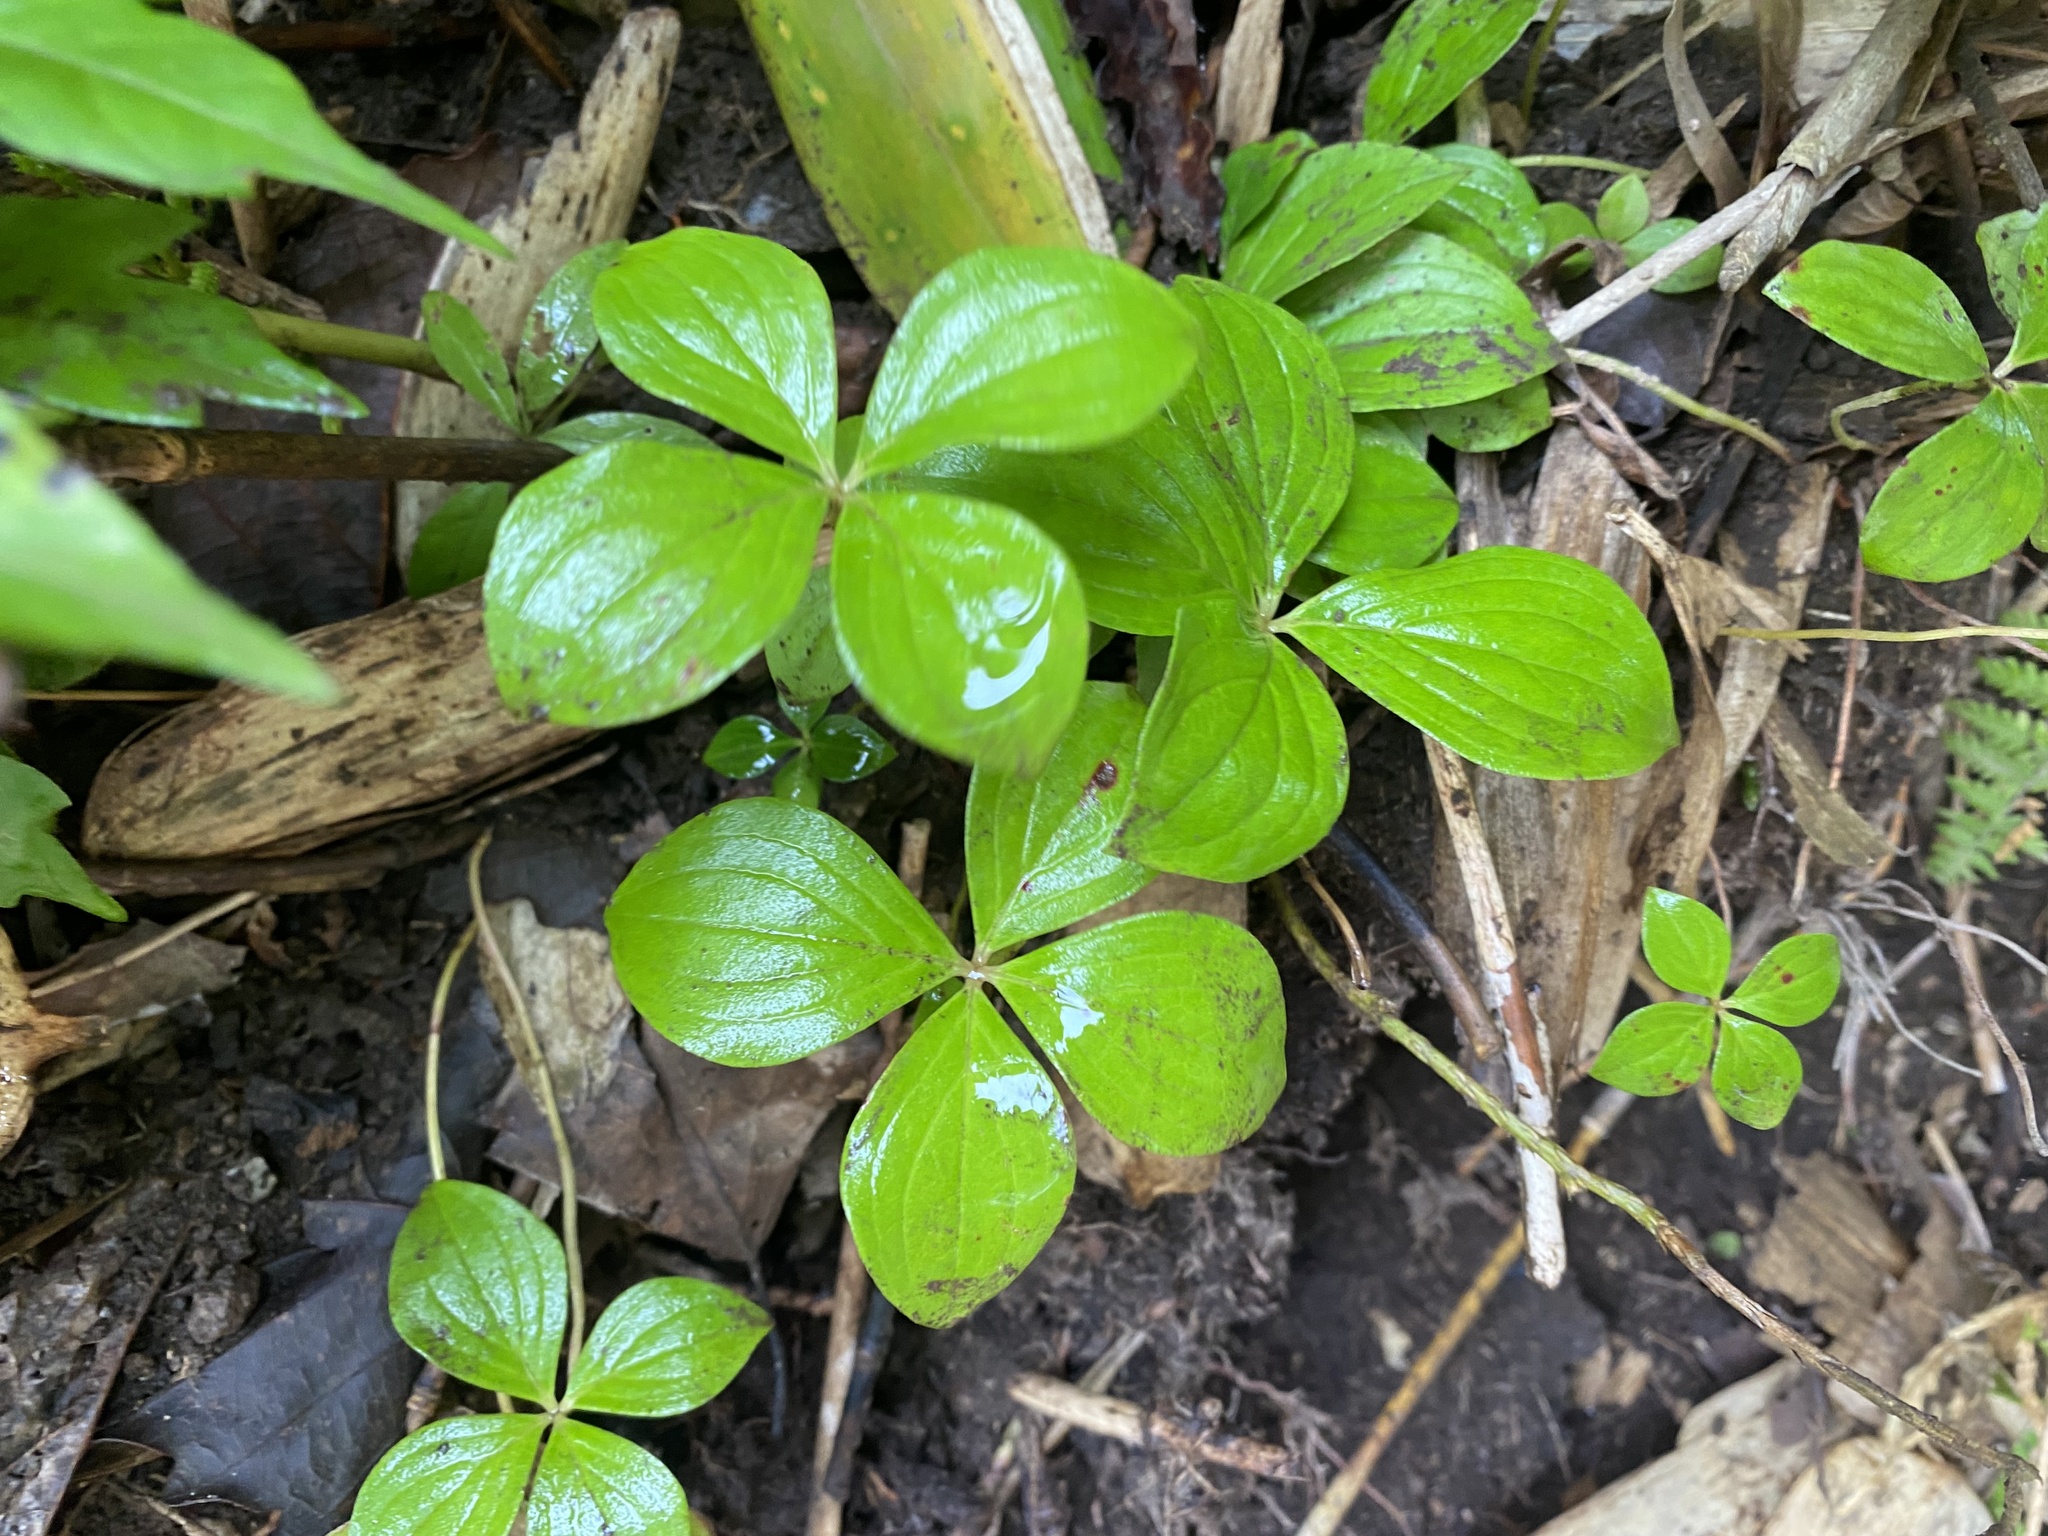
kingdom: Plantae
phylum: Tracheophyta
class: Magnoliopsida
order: Cornales
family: Cornaceae
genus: Cornus
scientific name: Cornus canadensis
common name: Creeping dogwood
